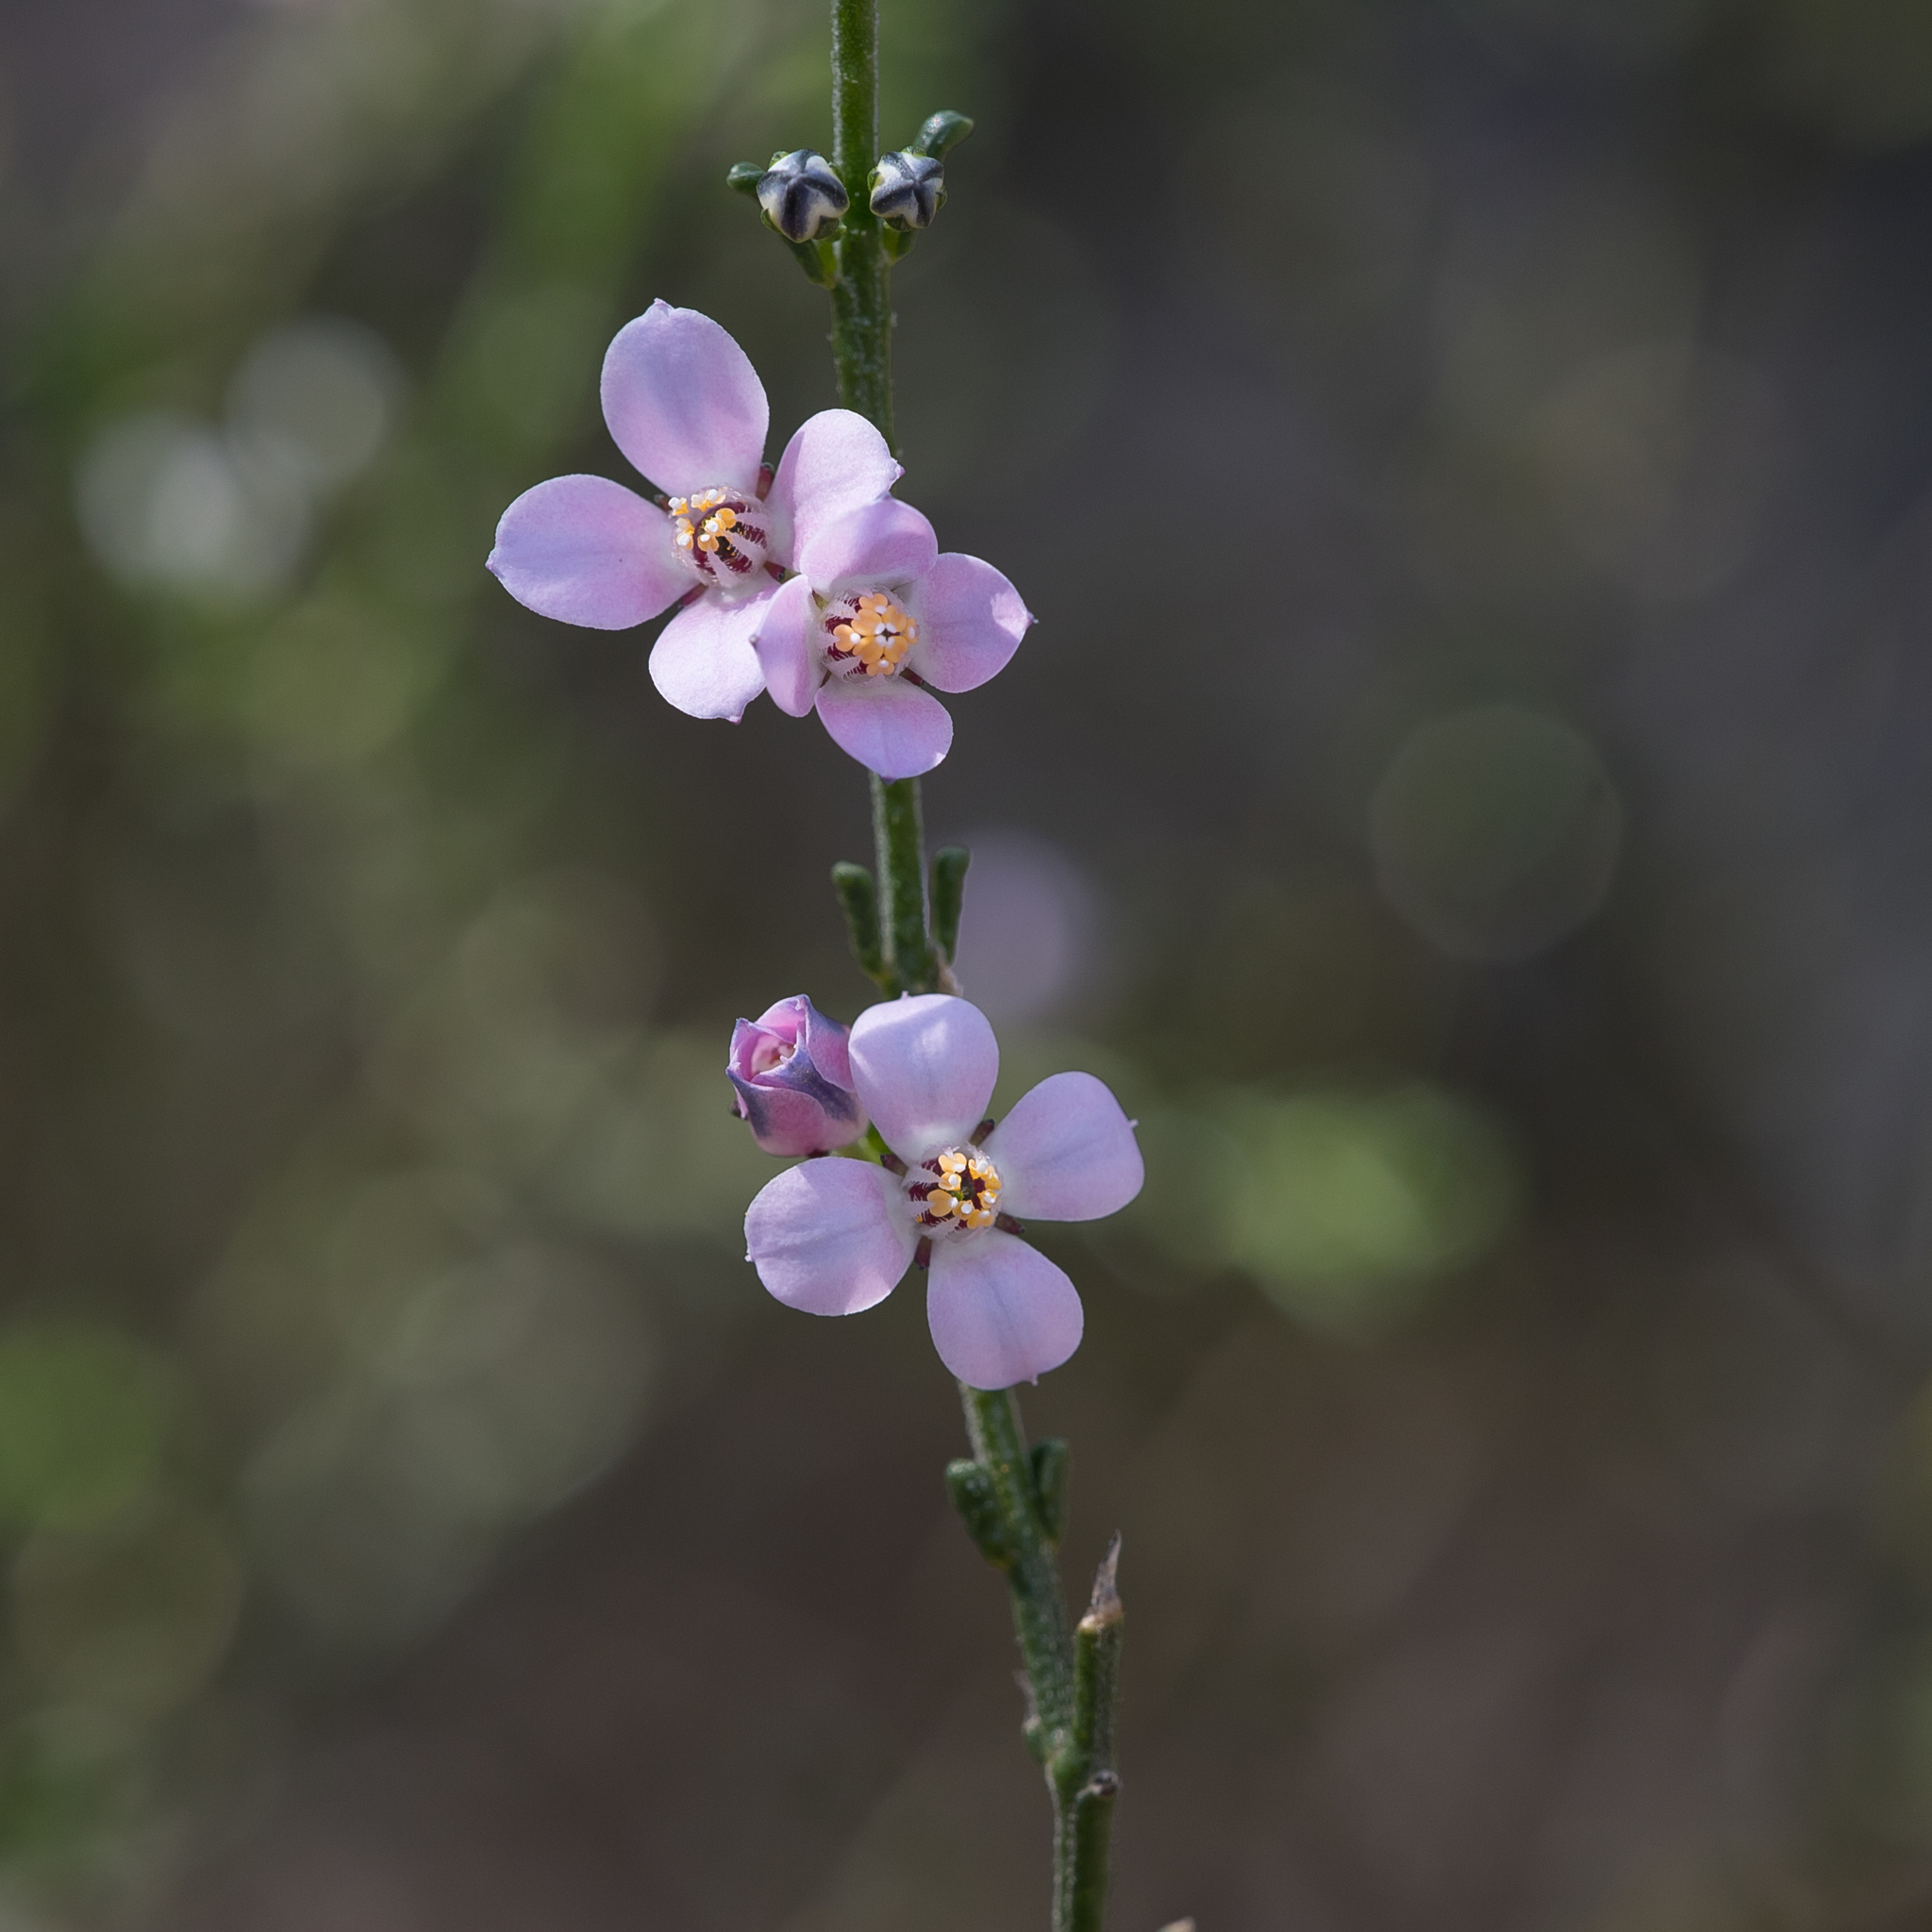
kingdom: Plantae
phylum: Tracheophyta
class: Magnoliopsida
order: Sapindales
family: Rutaceae
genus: Cyanothamnus
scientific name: Cyanothamnus coerulescens
